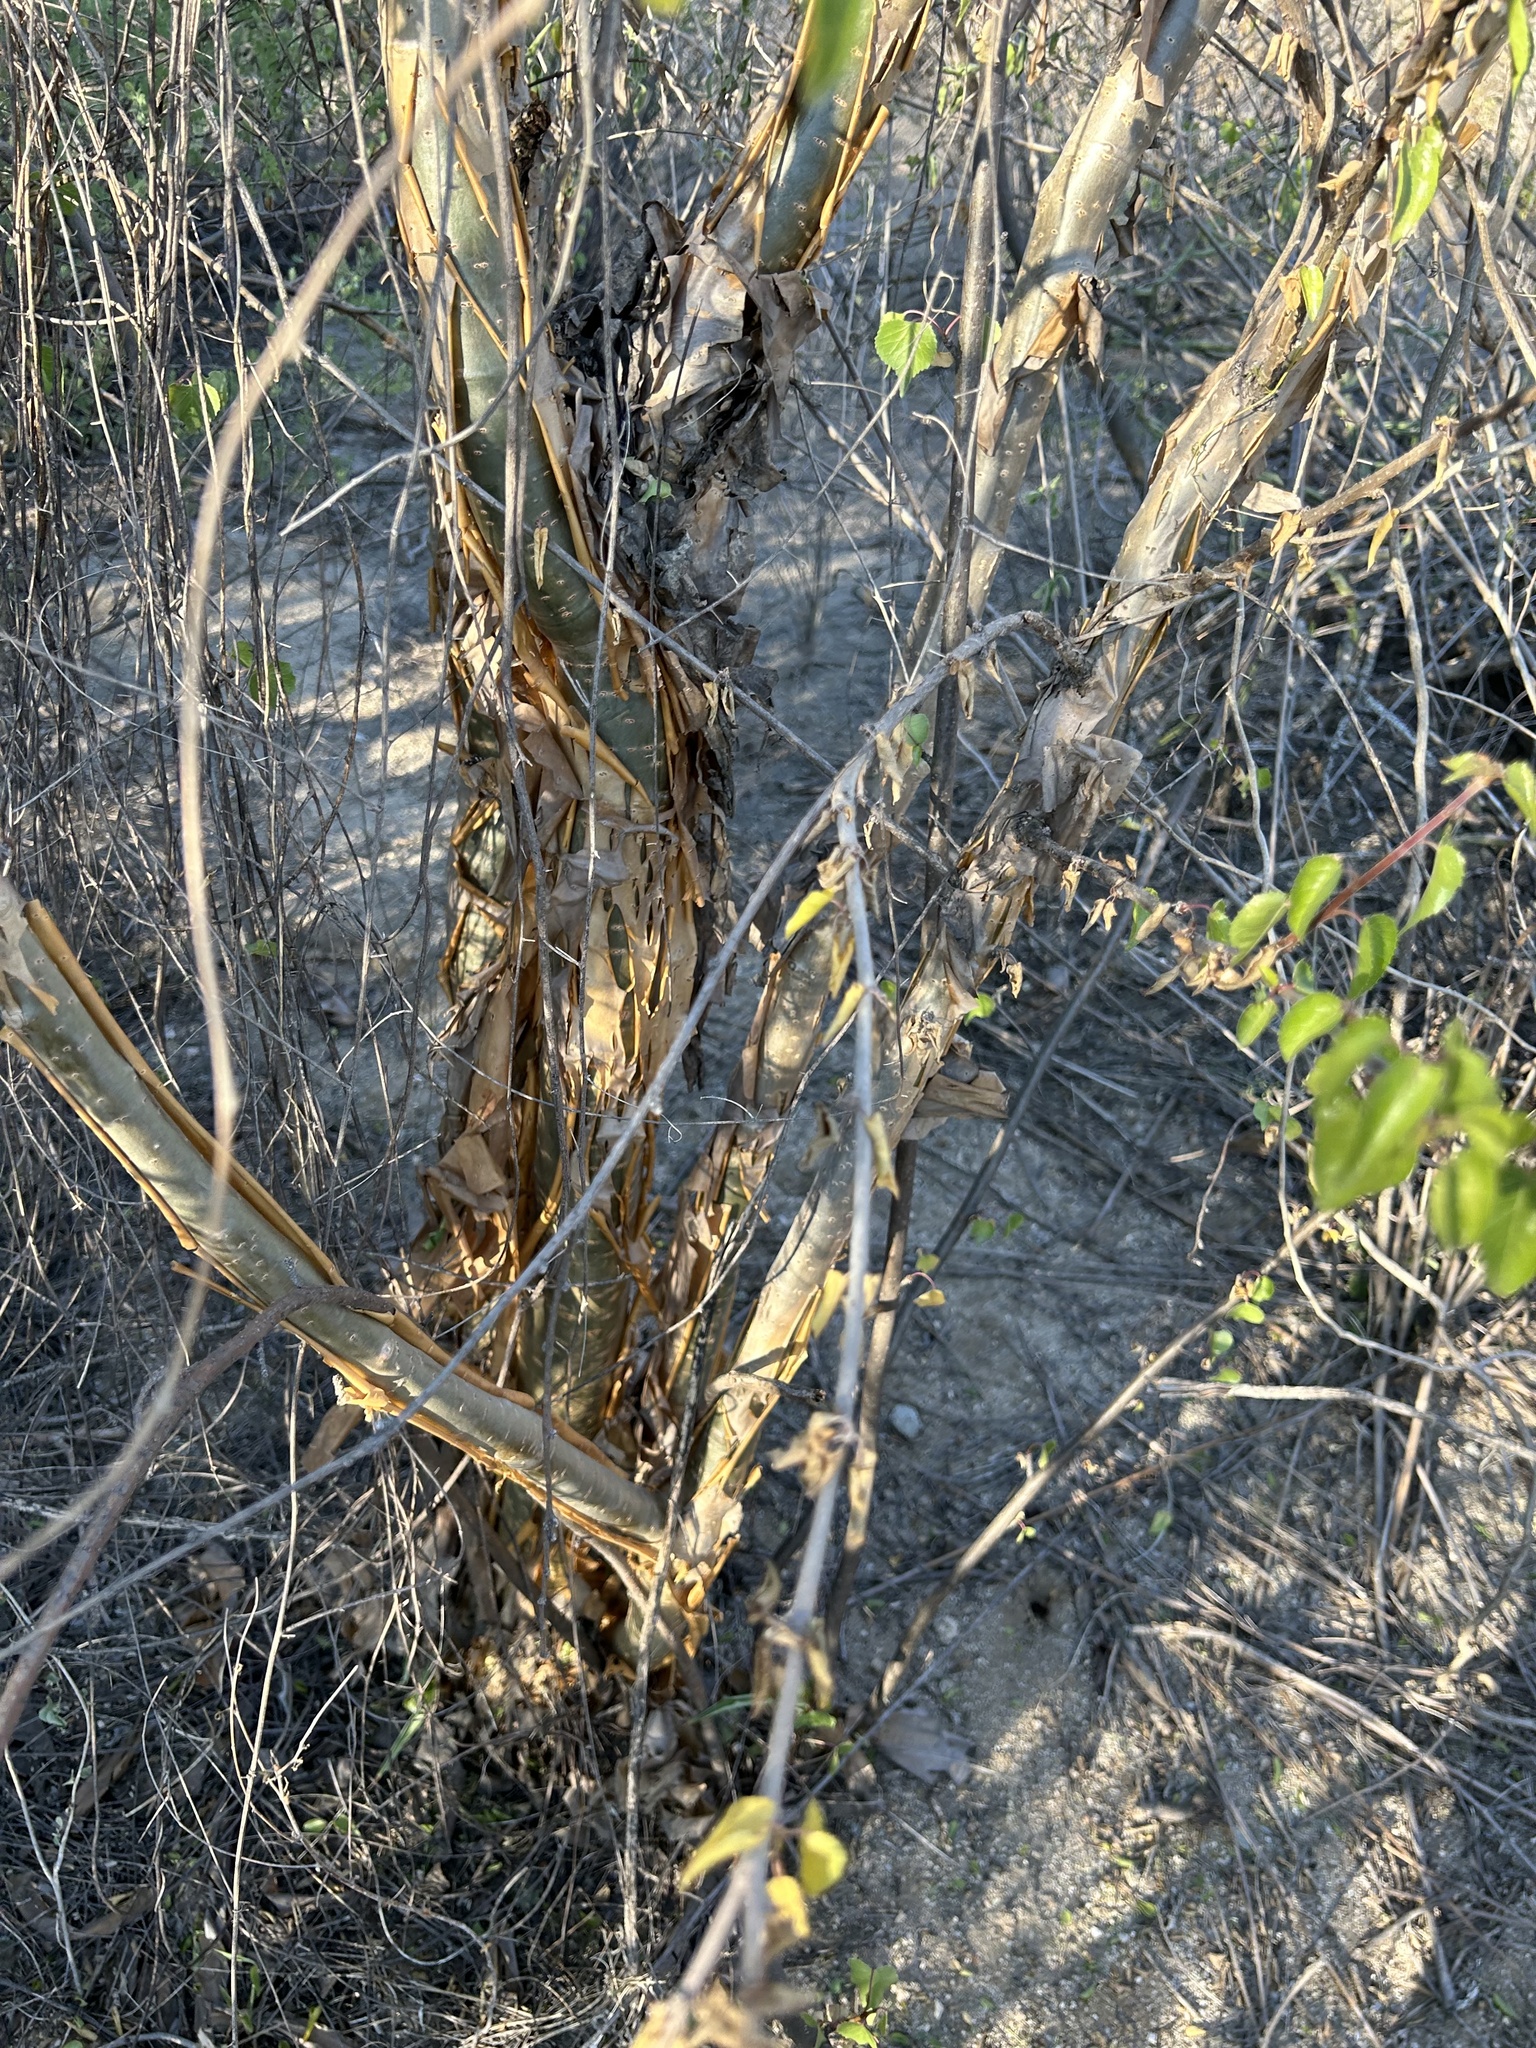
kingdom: Plantae
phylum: Tracheophyta
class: Magnoliopsida
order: Malpighiales
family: Euphorbiaceae
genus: Jatropha
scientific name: Jatropha cordata
